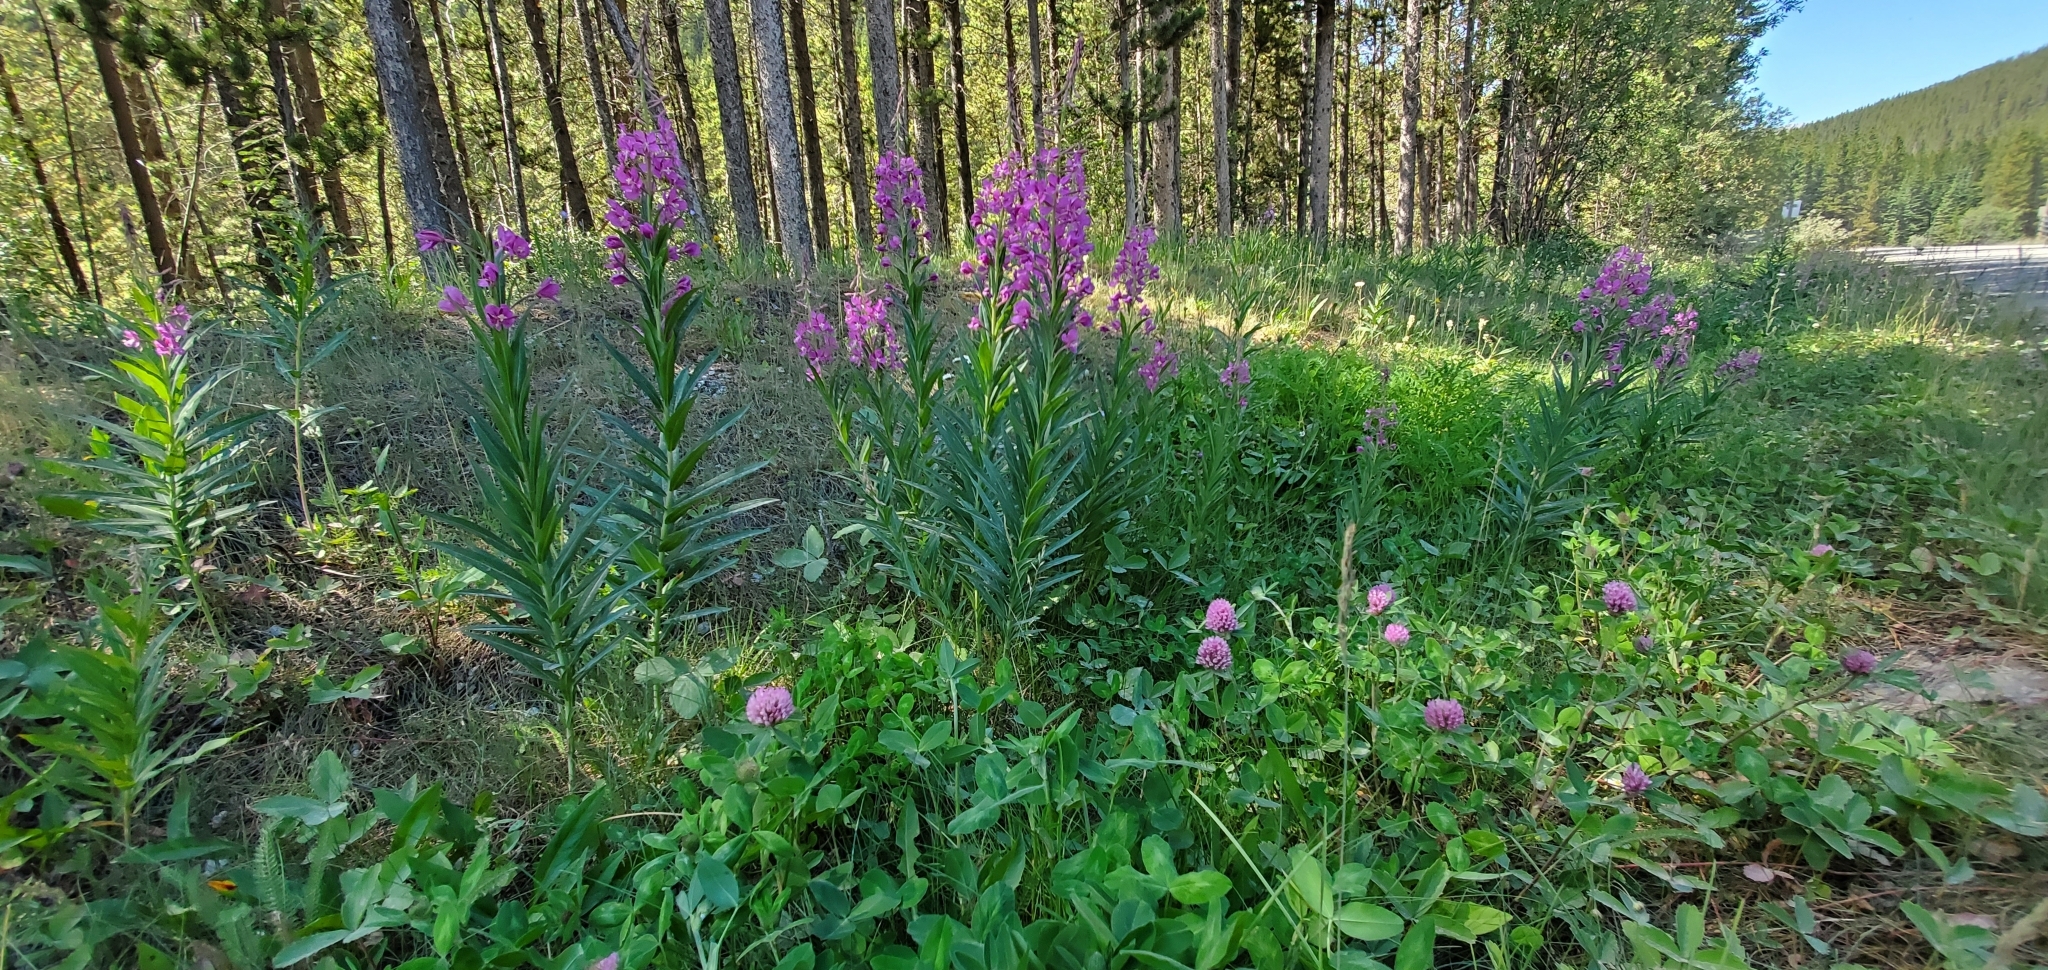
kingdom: Plantae
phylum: Tracheophyta
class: Magnoliopsida
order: Myrtales
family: Onagraceae
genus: Chamaenerion
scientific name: Chamaenerion angustifolium
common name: Fireweed
